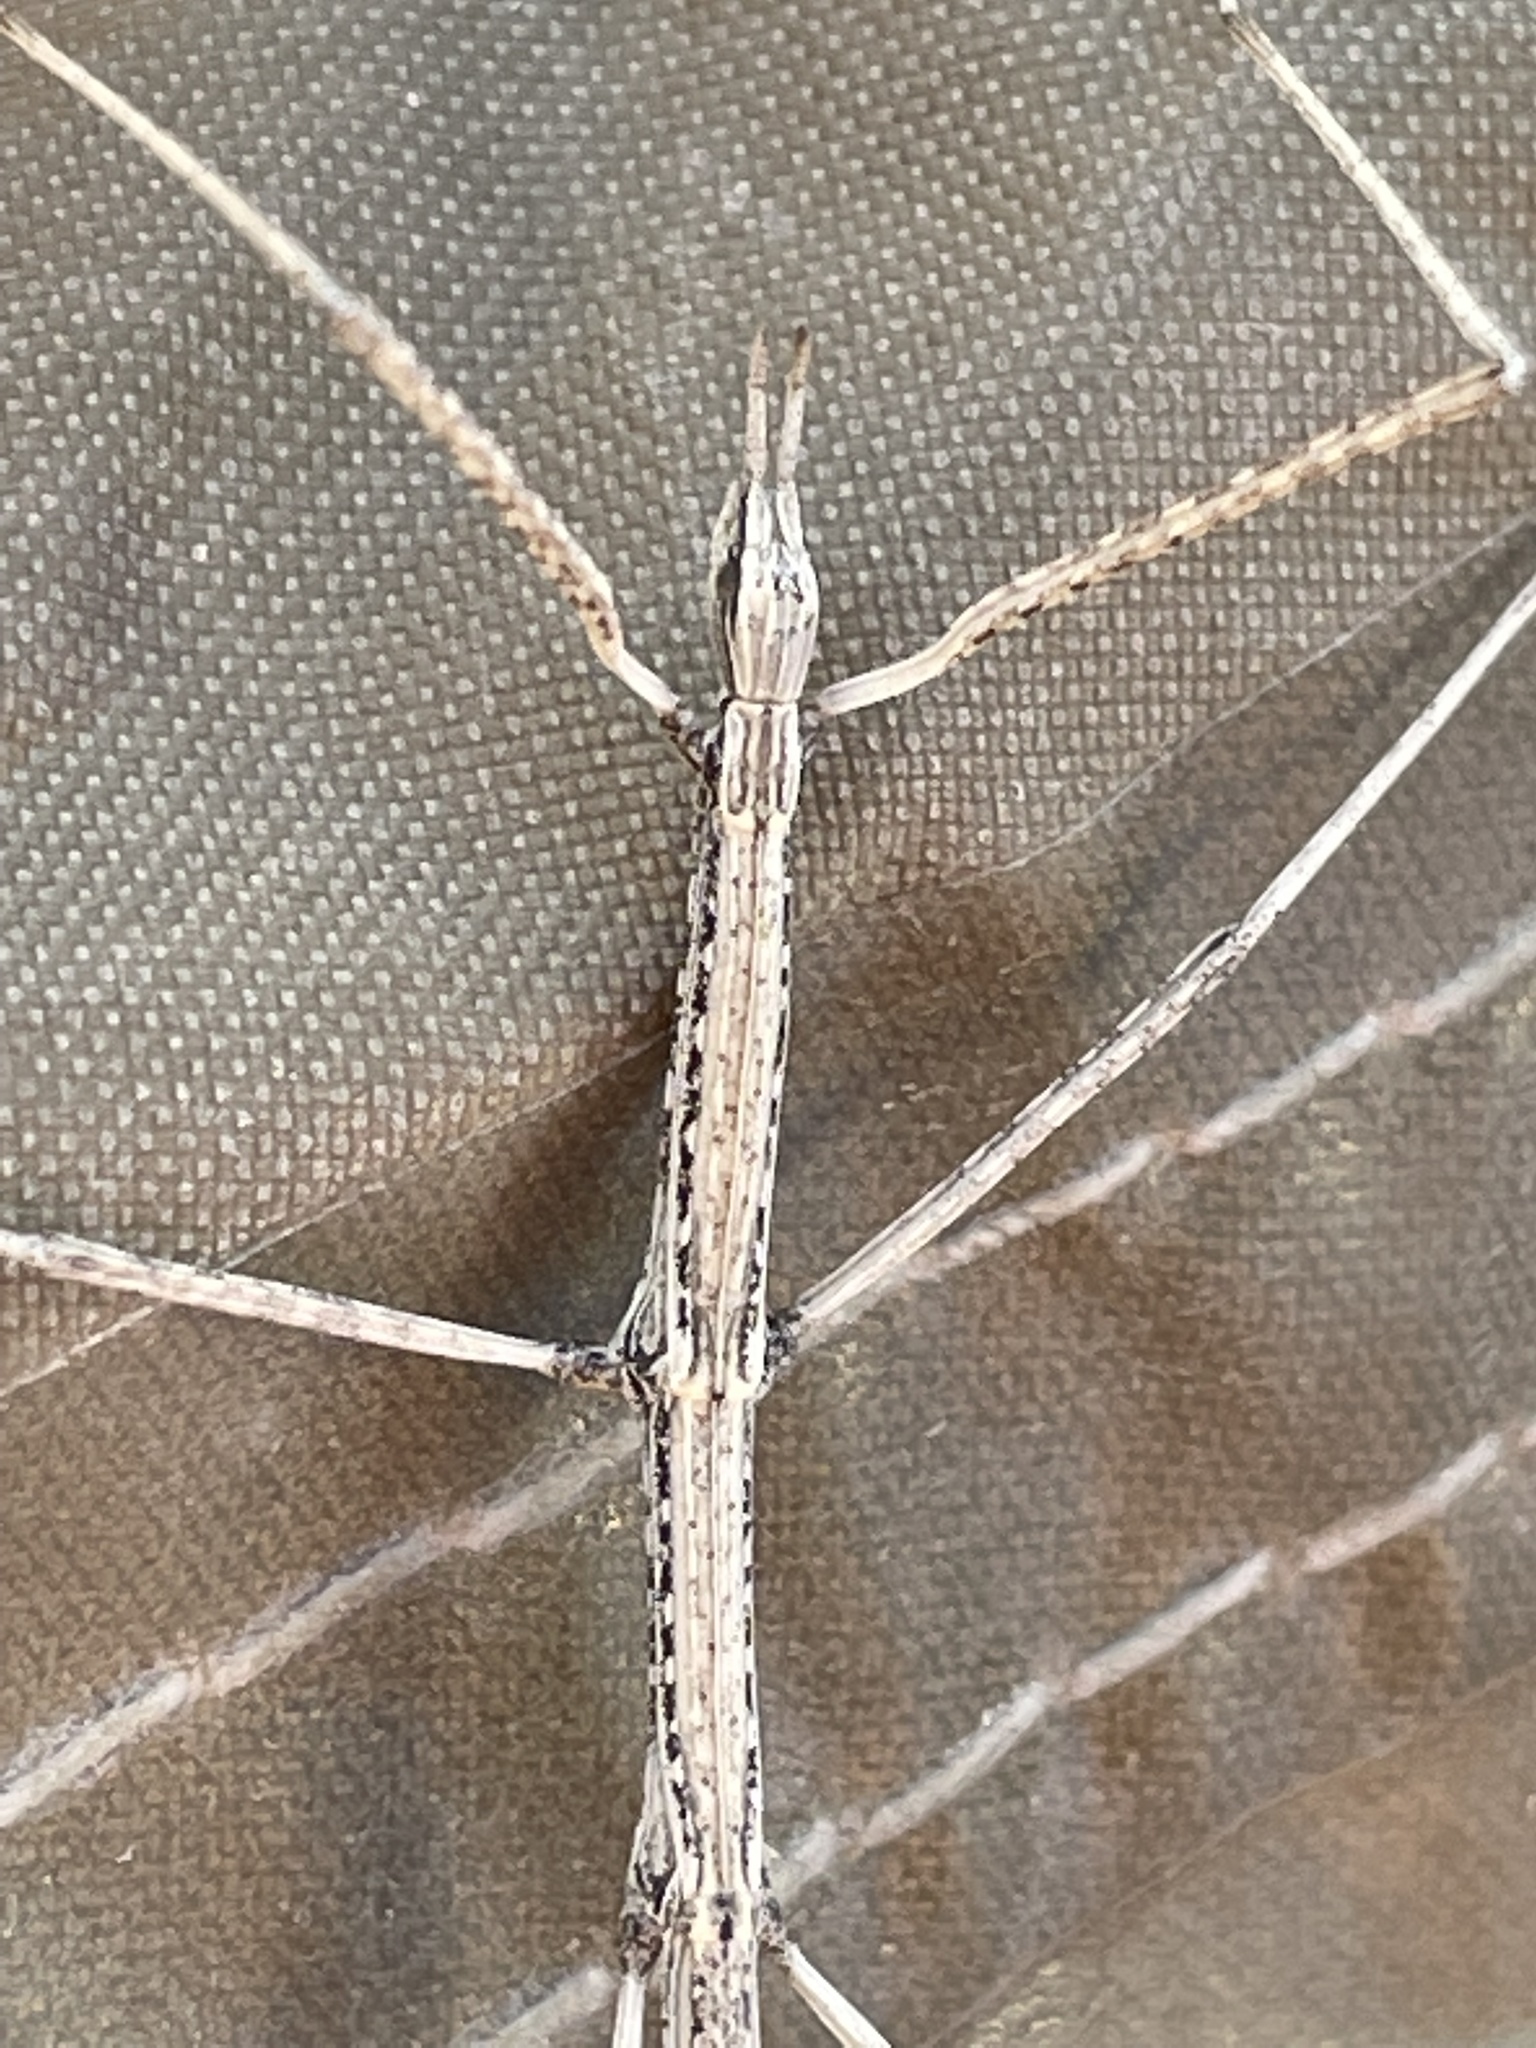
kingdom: Animalia
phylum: Arthropoda
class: Insecta
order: Phasmida
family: Heteronemiidae
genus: Parabacillus
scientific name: Parabacillus hesperus
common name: Western short-horned walkingstick
